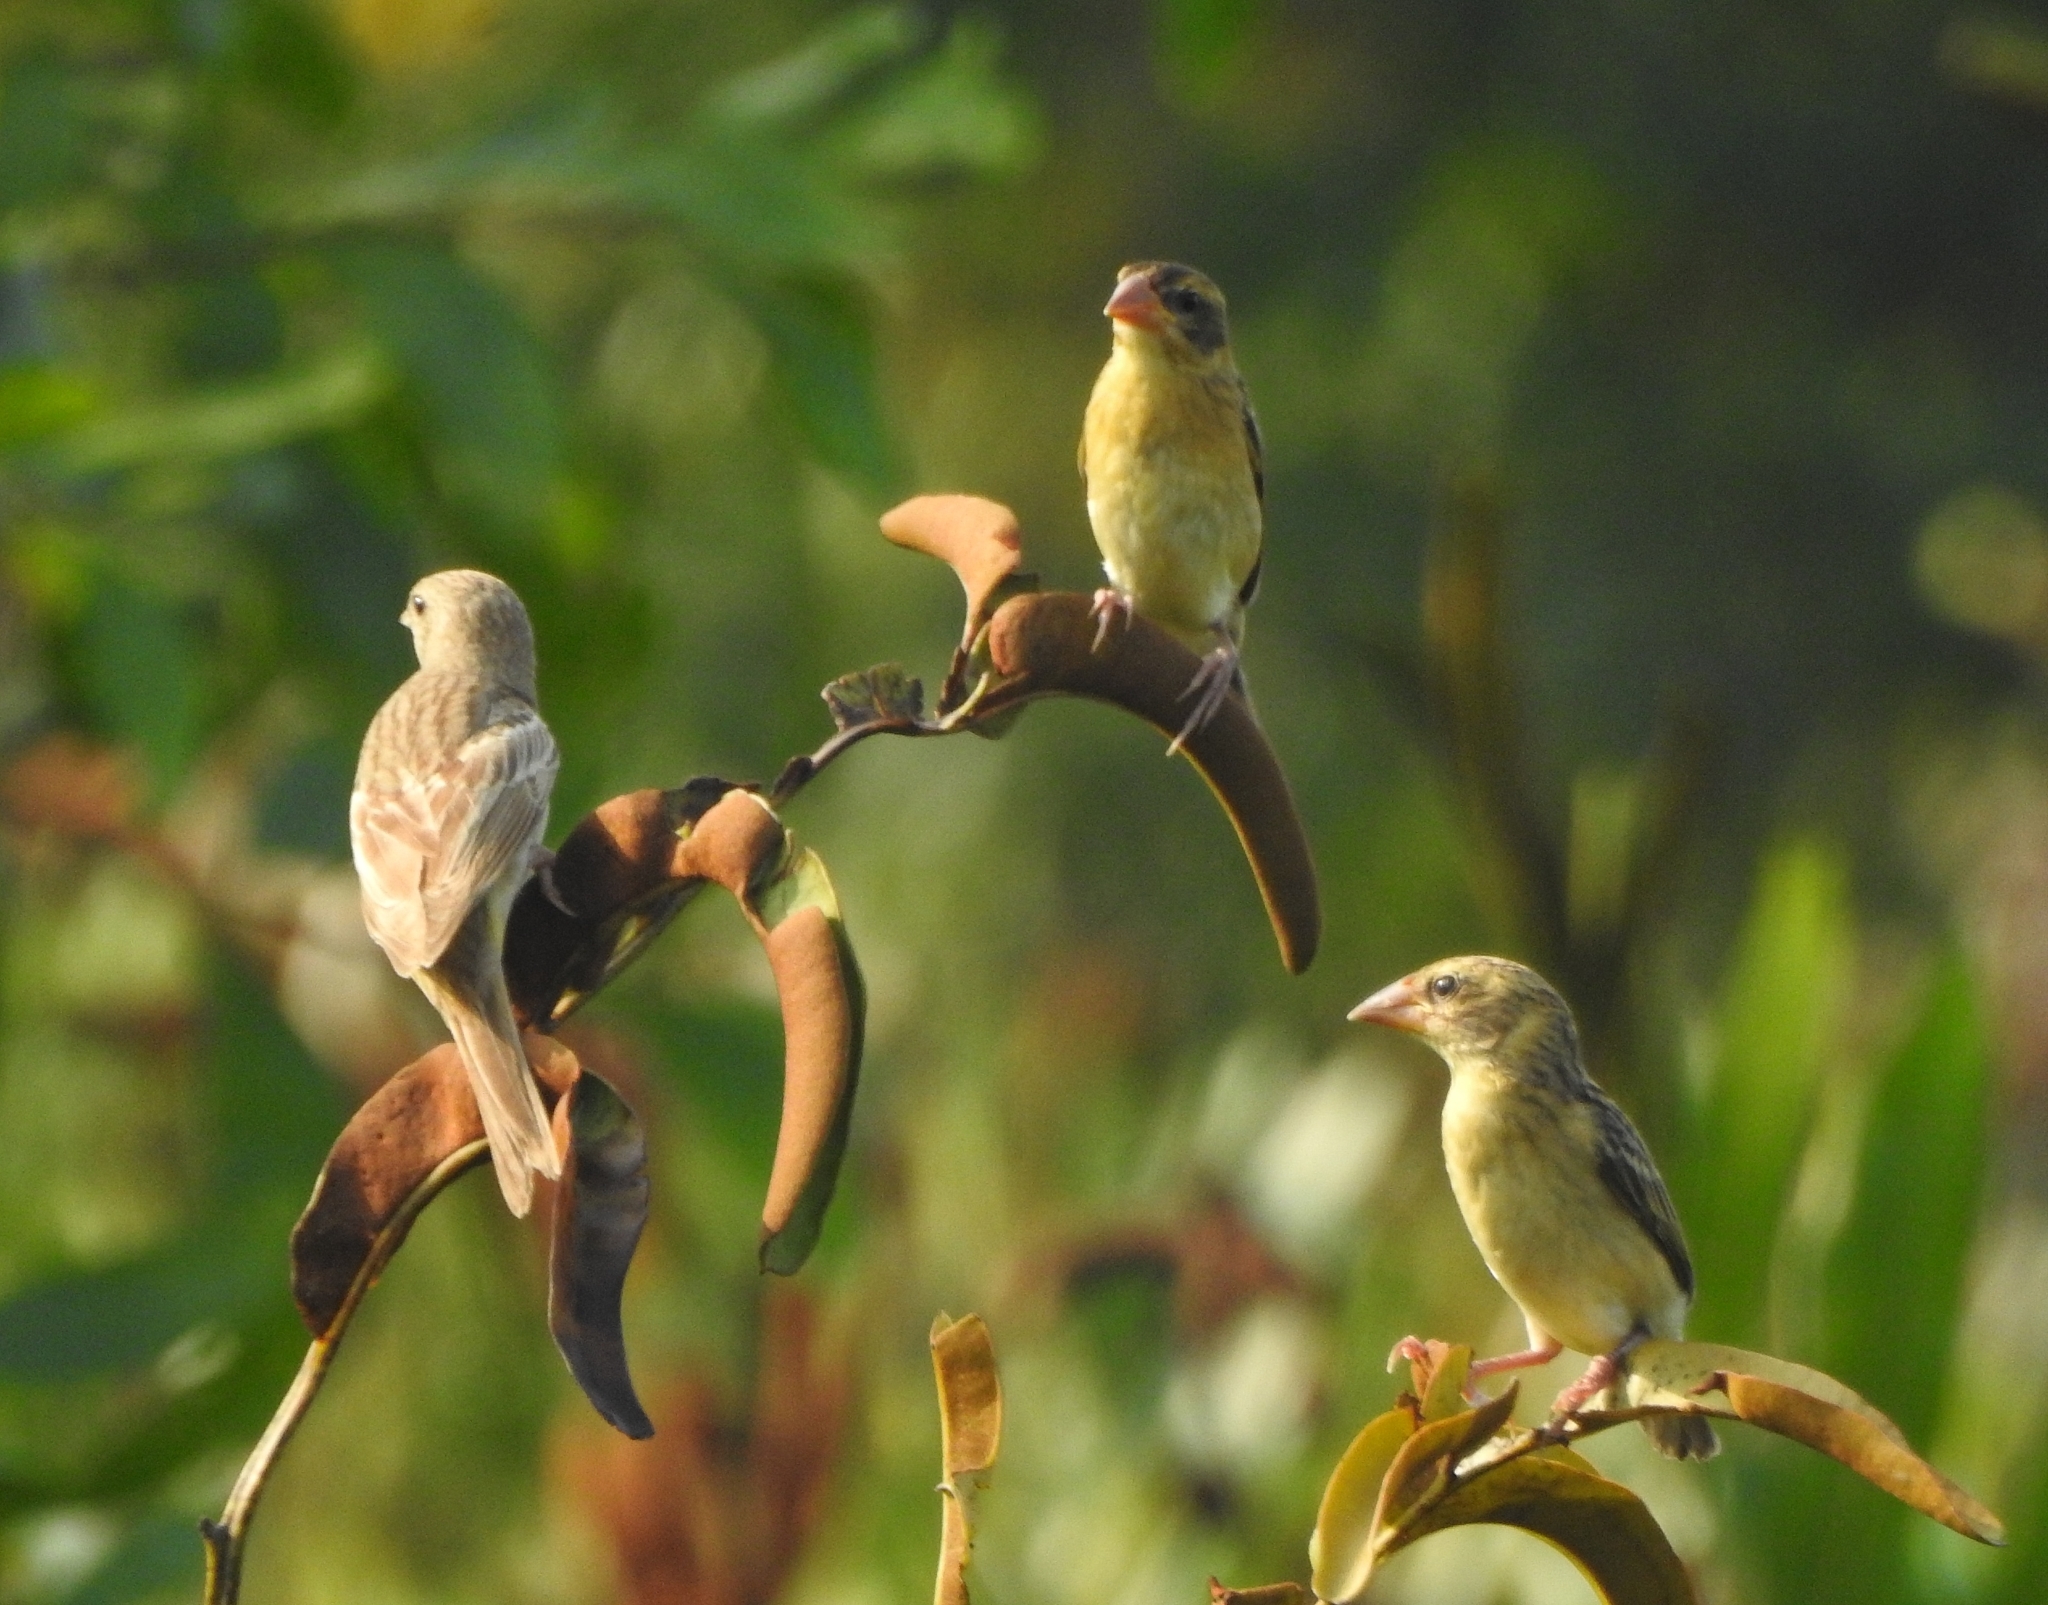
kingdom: Animalia
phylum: Chordata
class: Aves
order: Passeriformes
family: Ploceidae
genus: Ploceus
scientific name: Ploceus philippinus
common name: Baya weaver
